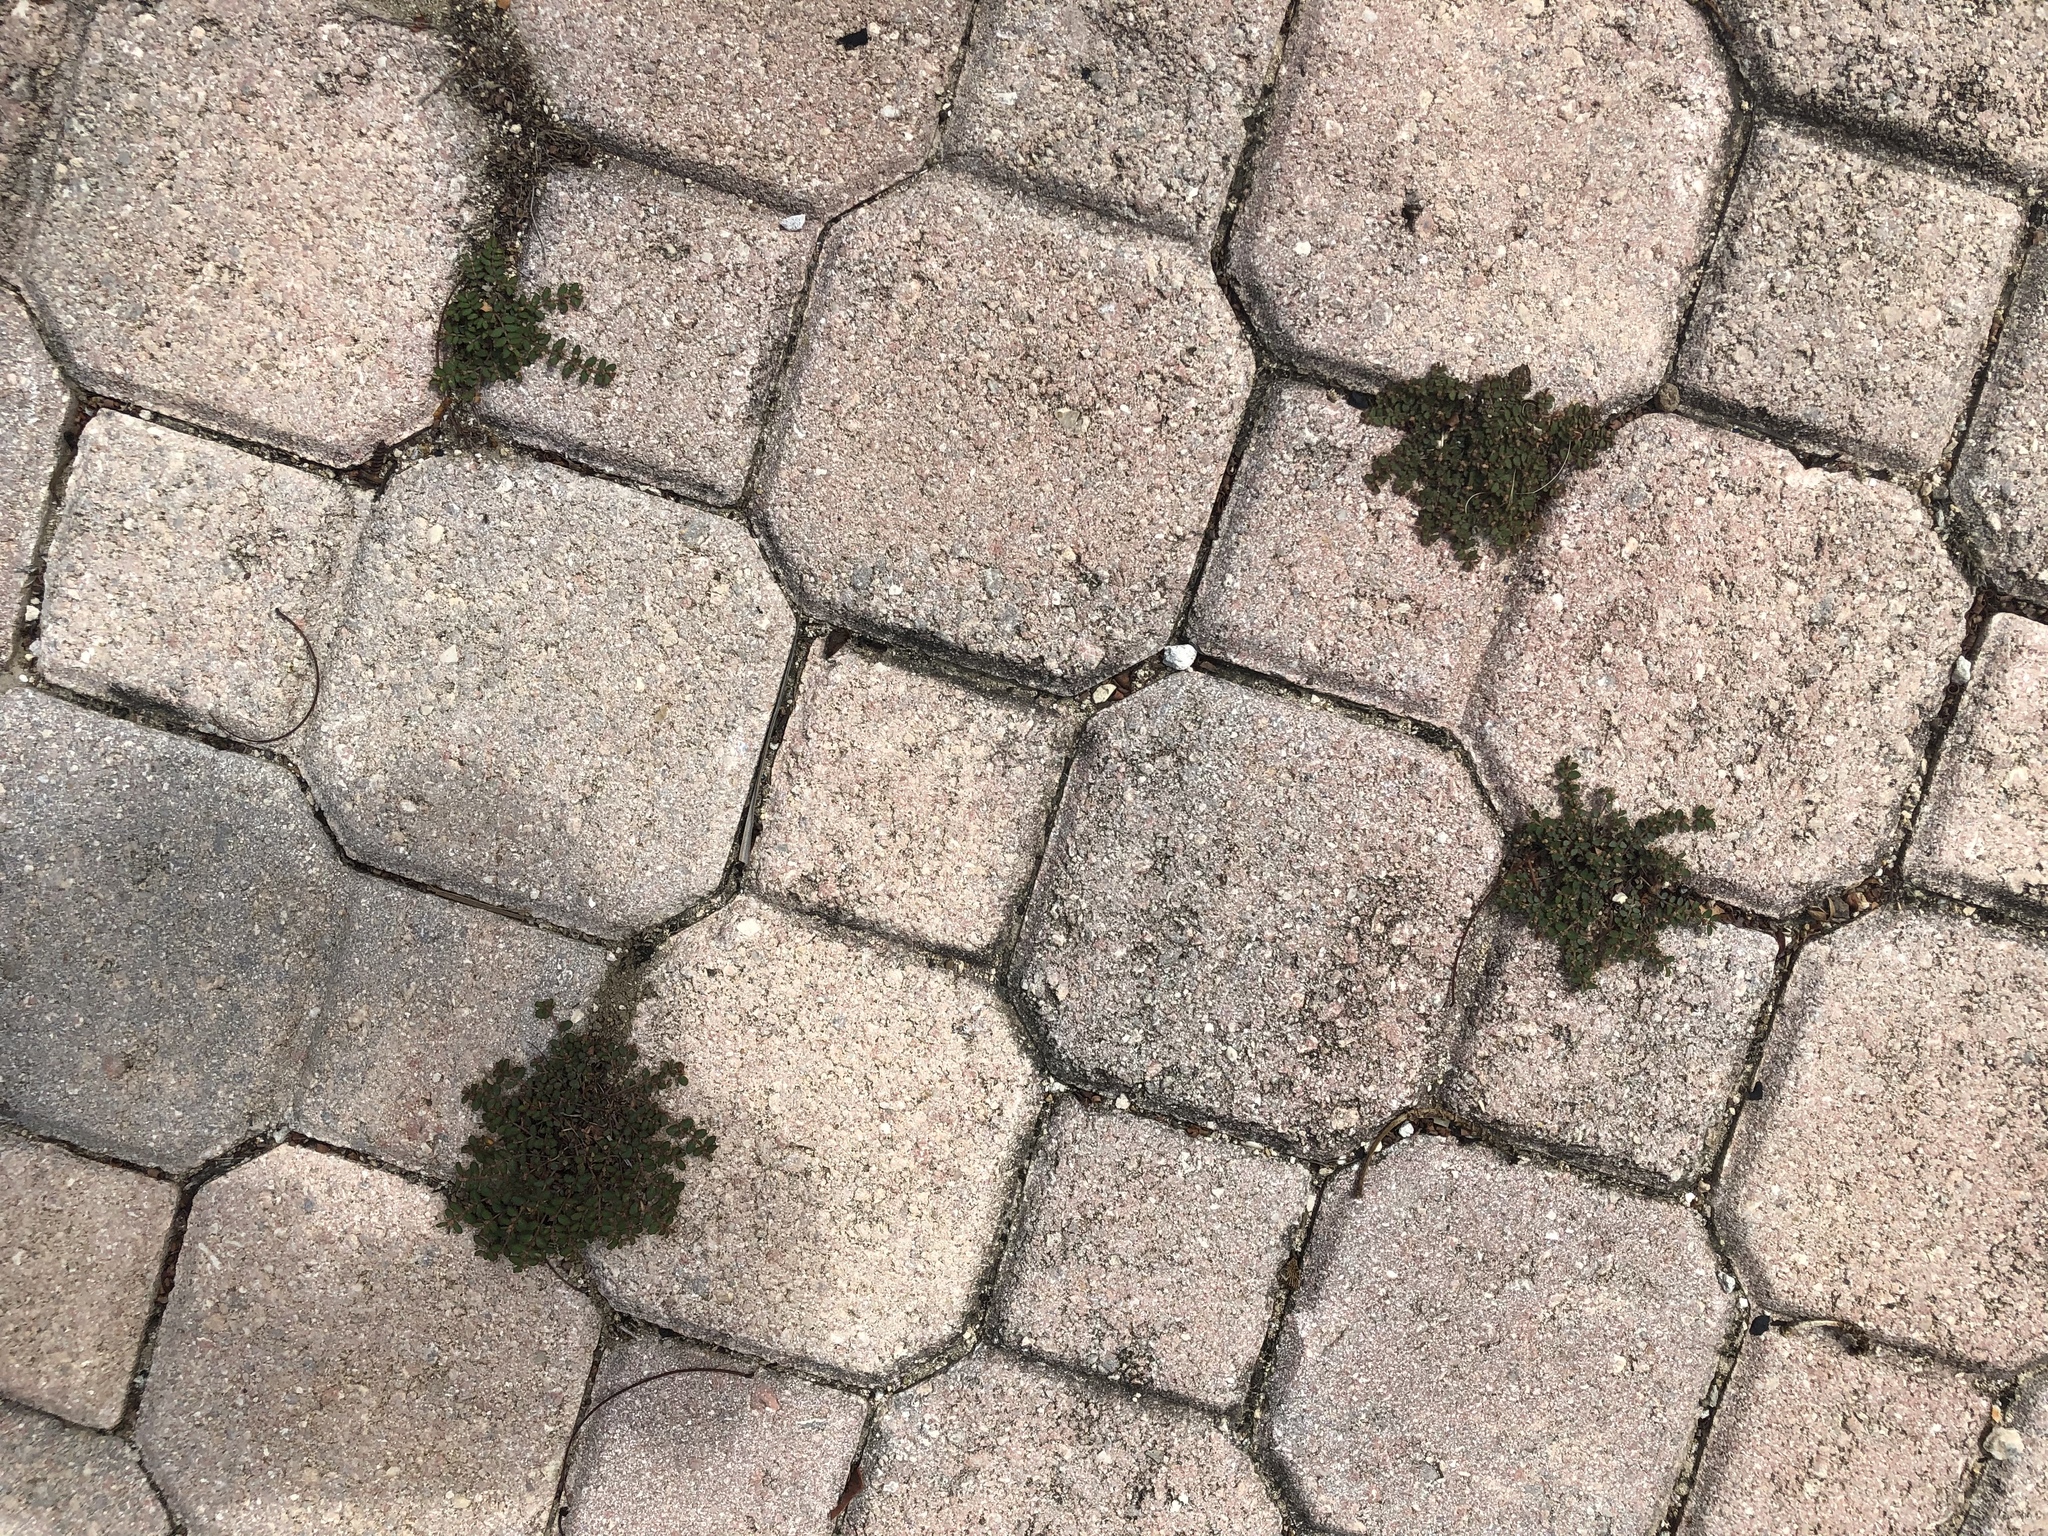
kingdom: Plantae
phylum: Tracheophyta
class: Magnoliopsida
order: Malpighiales
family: Euphorbiaceae
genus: Euphorbia
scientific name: Euphorbia dioeca
